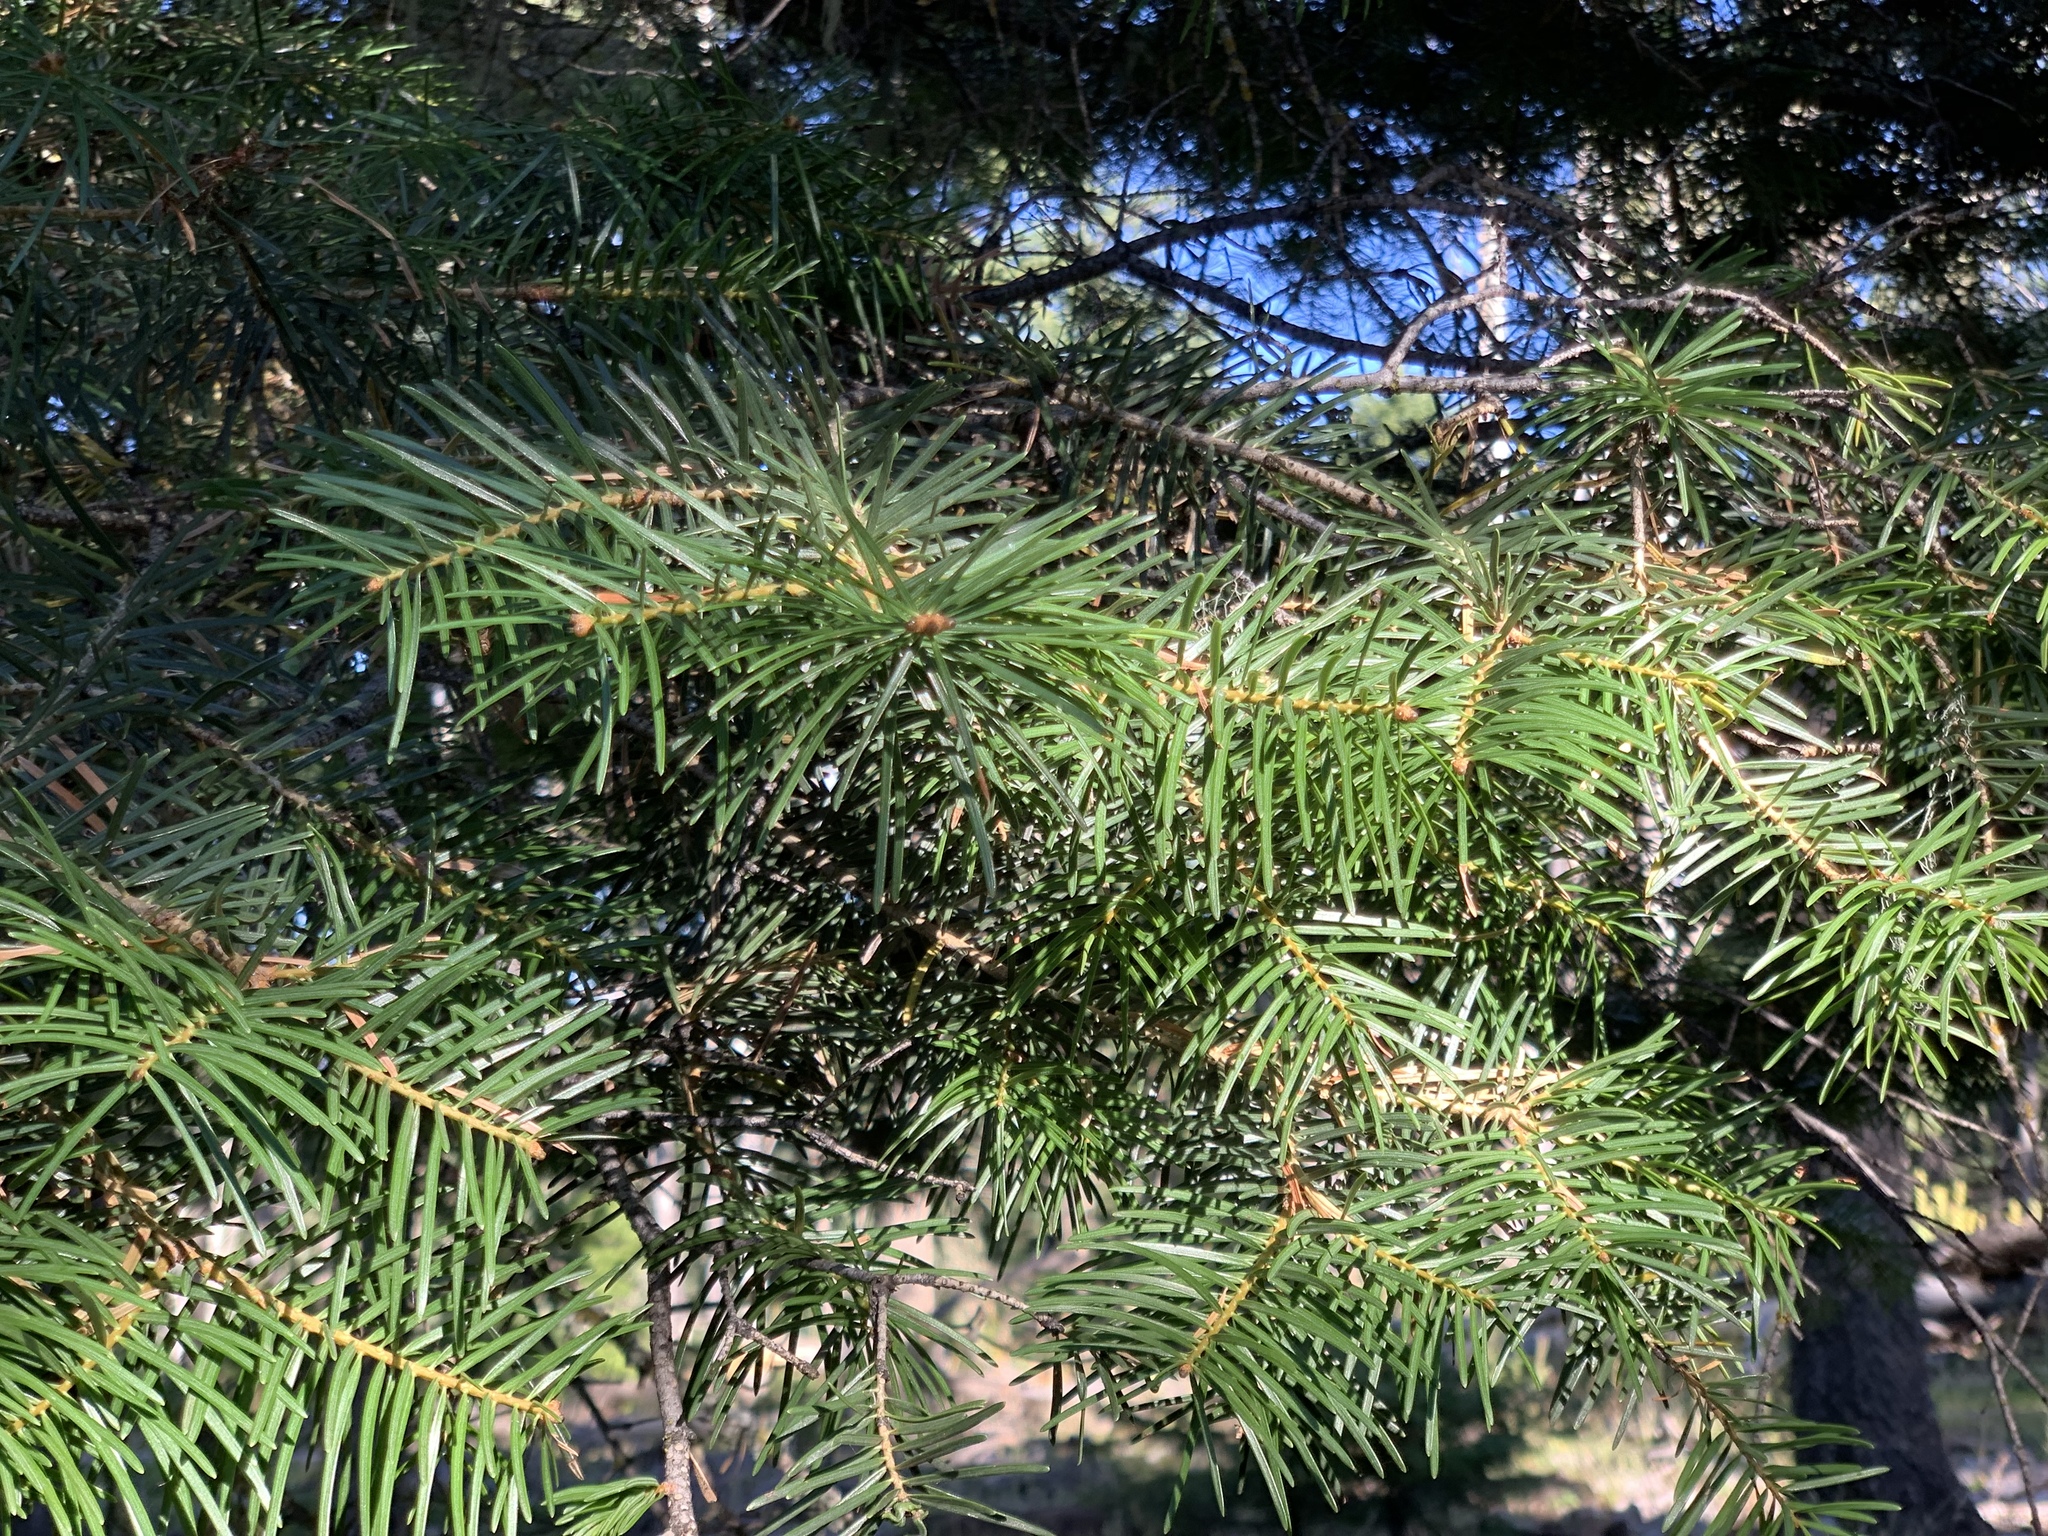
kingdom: Plantae
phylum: Tracheophyta
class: Pinopsida
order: Pinales
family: Pinaceae
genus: Abies
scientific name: Abies concolor
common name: Colorado fir
